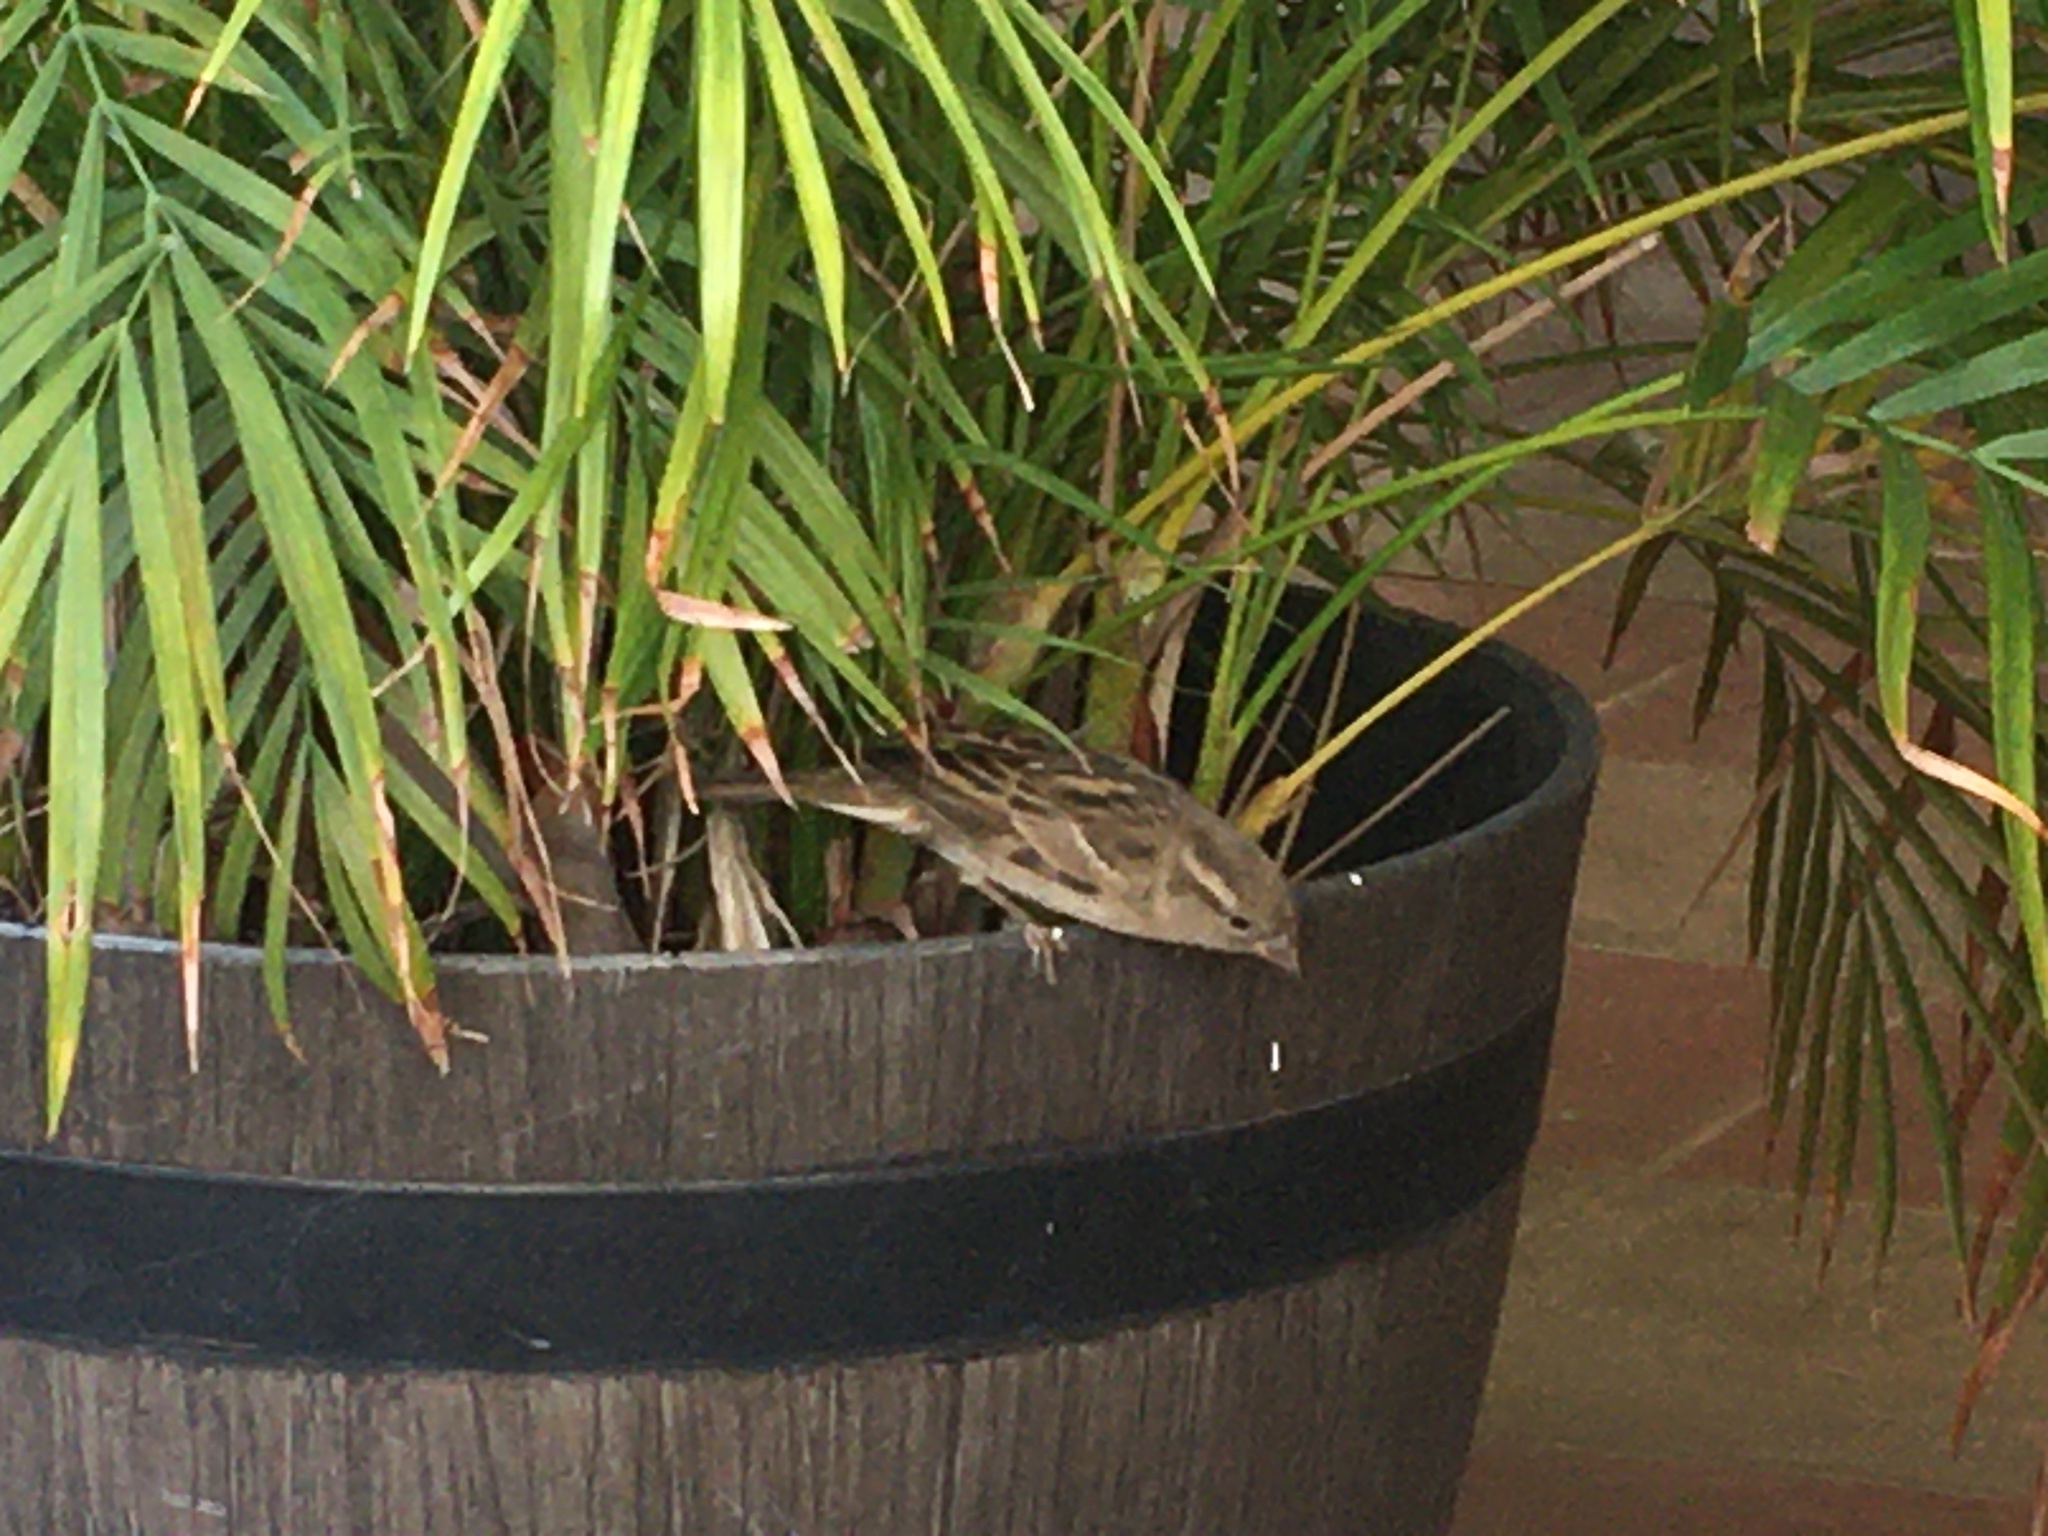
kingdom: Animalia
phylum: Chordata
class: Aves
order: Passeriformes
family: Passeridae
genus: Passer
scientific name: Passer domesticus
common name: House sparrow
